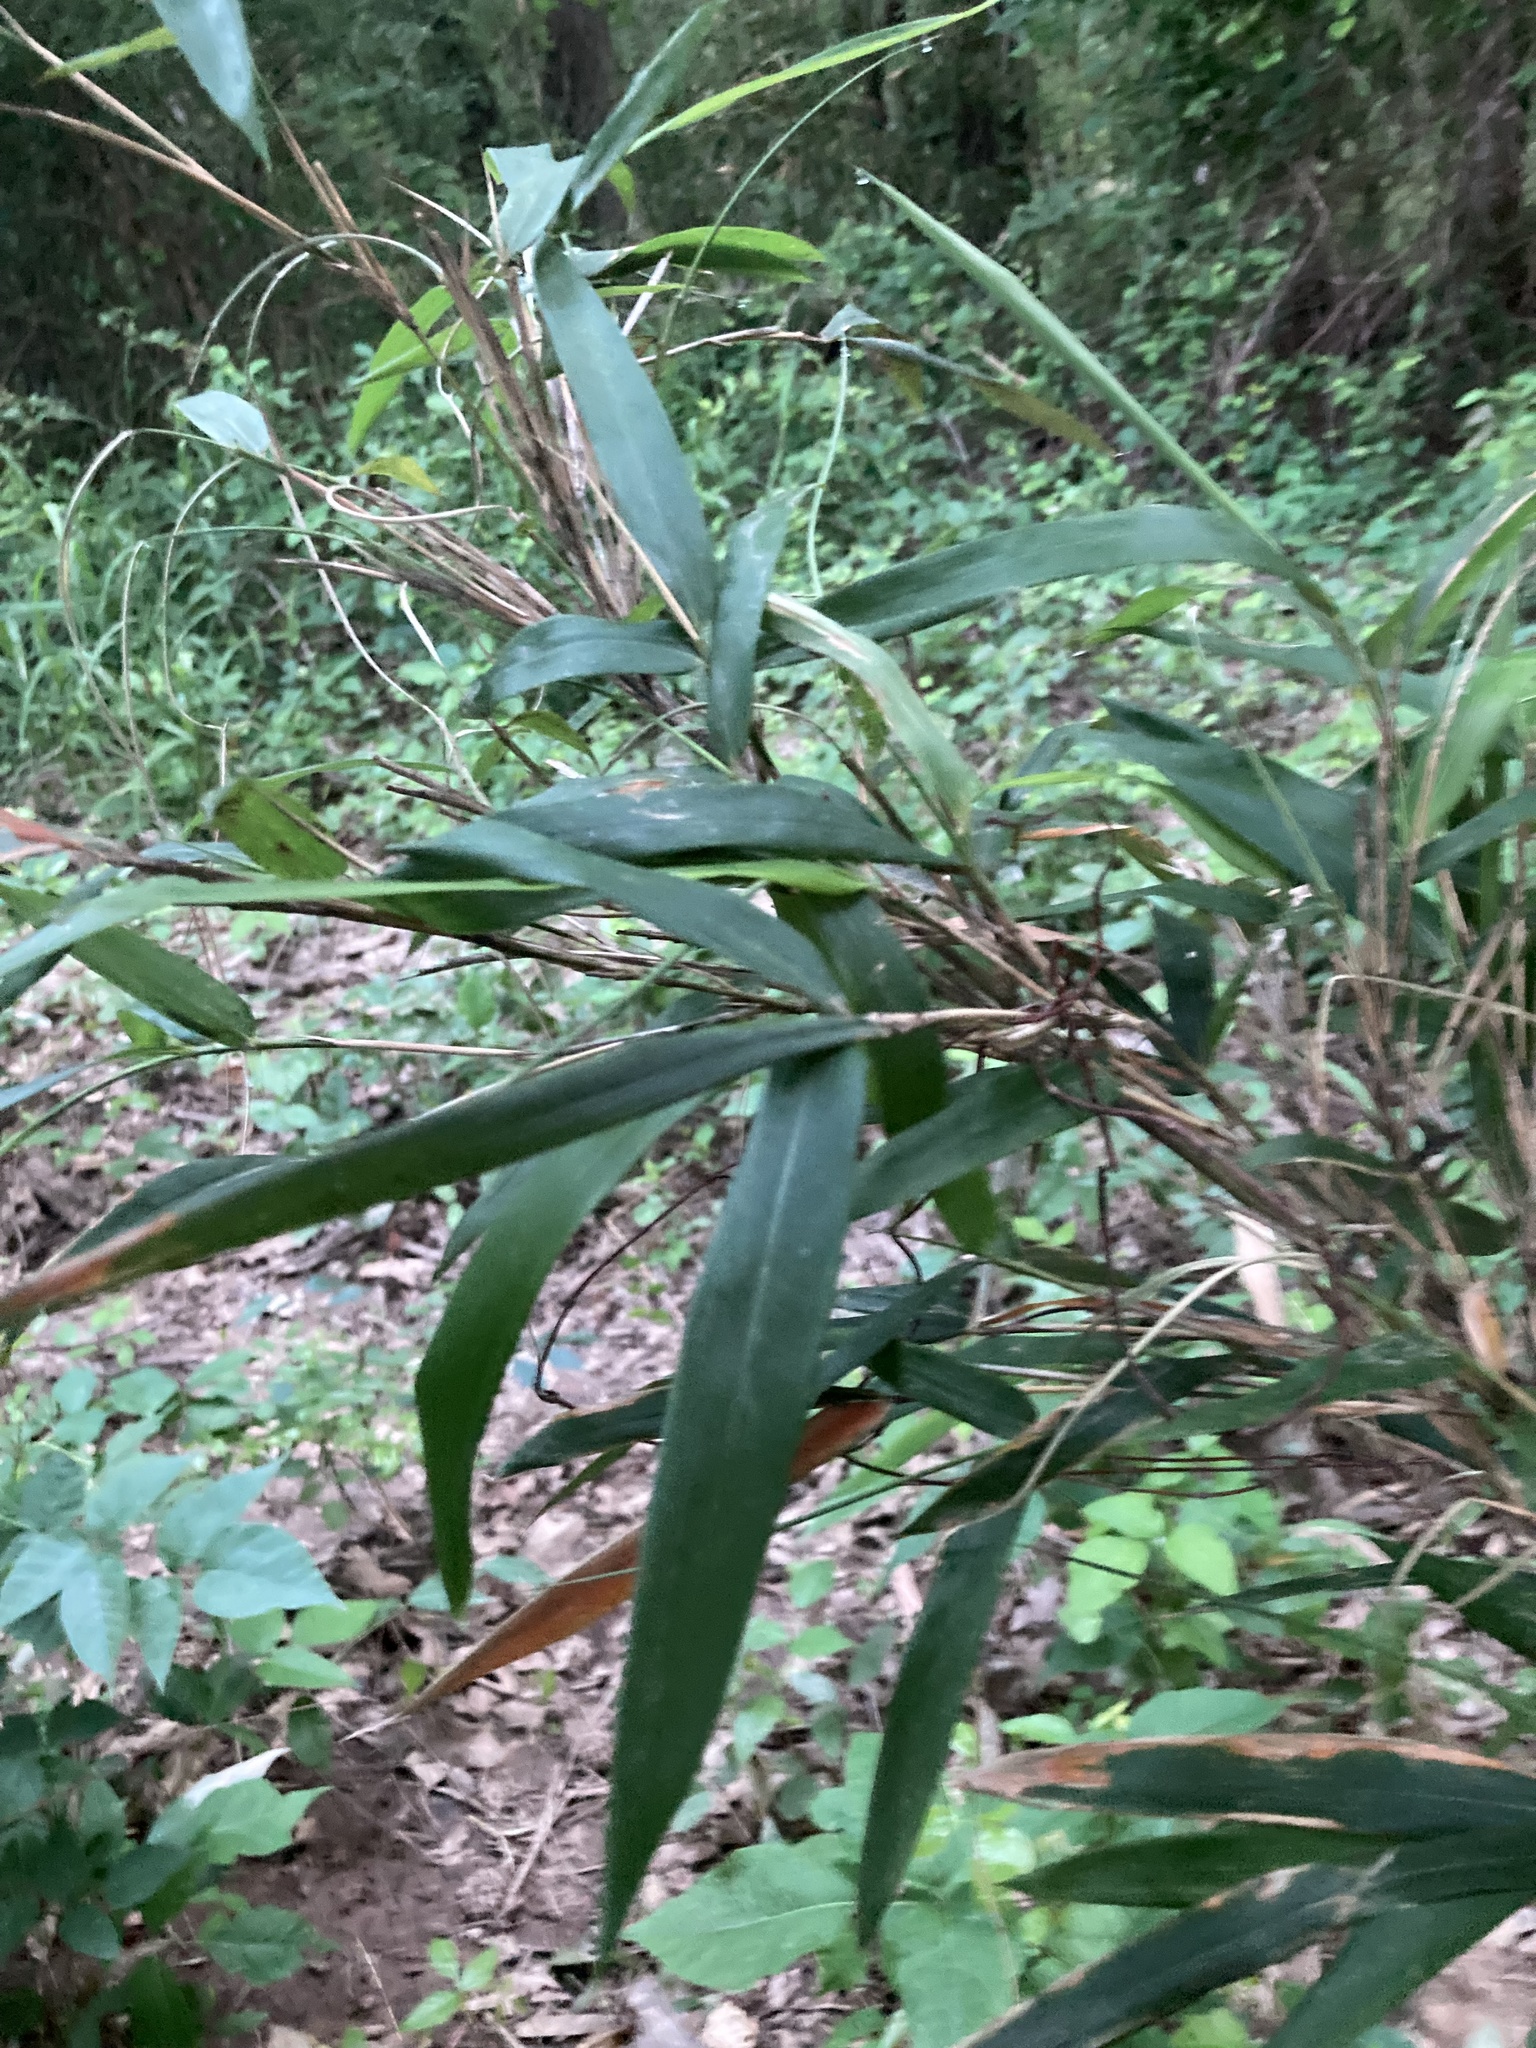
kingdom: Plantae
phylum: Tracheophyta
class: Liliopsida
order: Poales
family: Poaceae
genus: Arundinaria
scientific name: Arundinaria gigantea
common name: Giant cane
